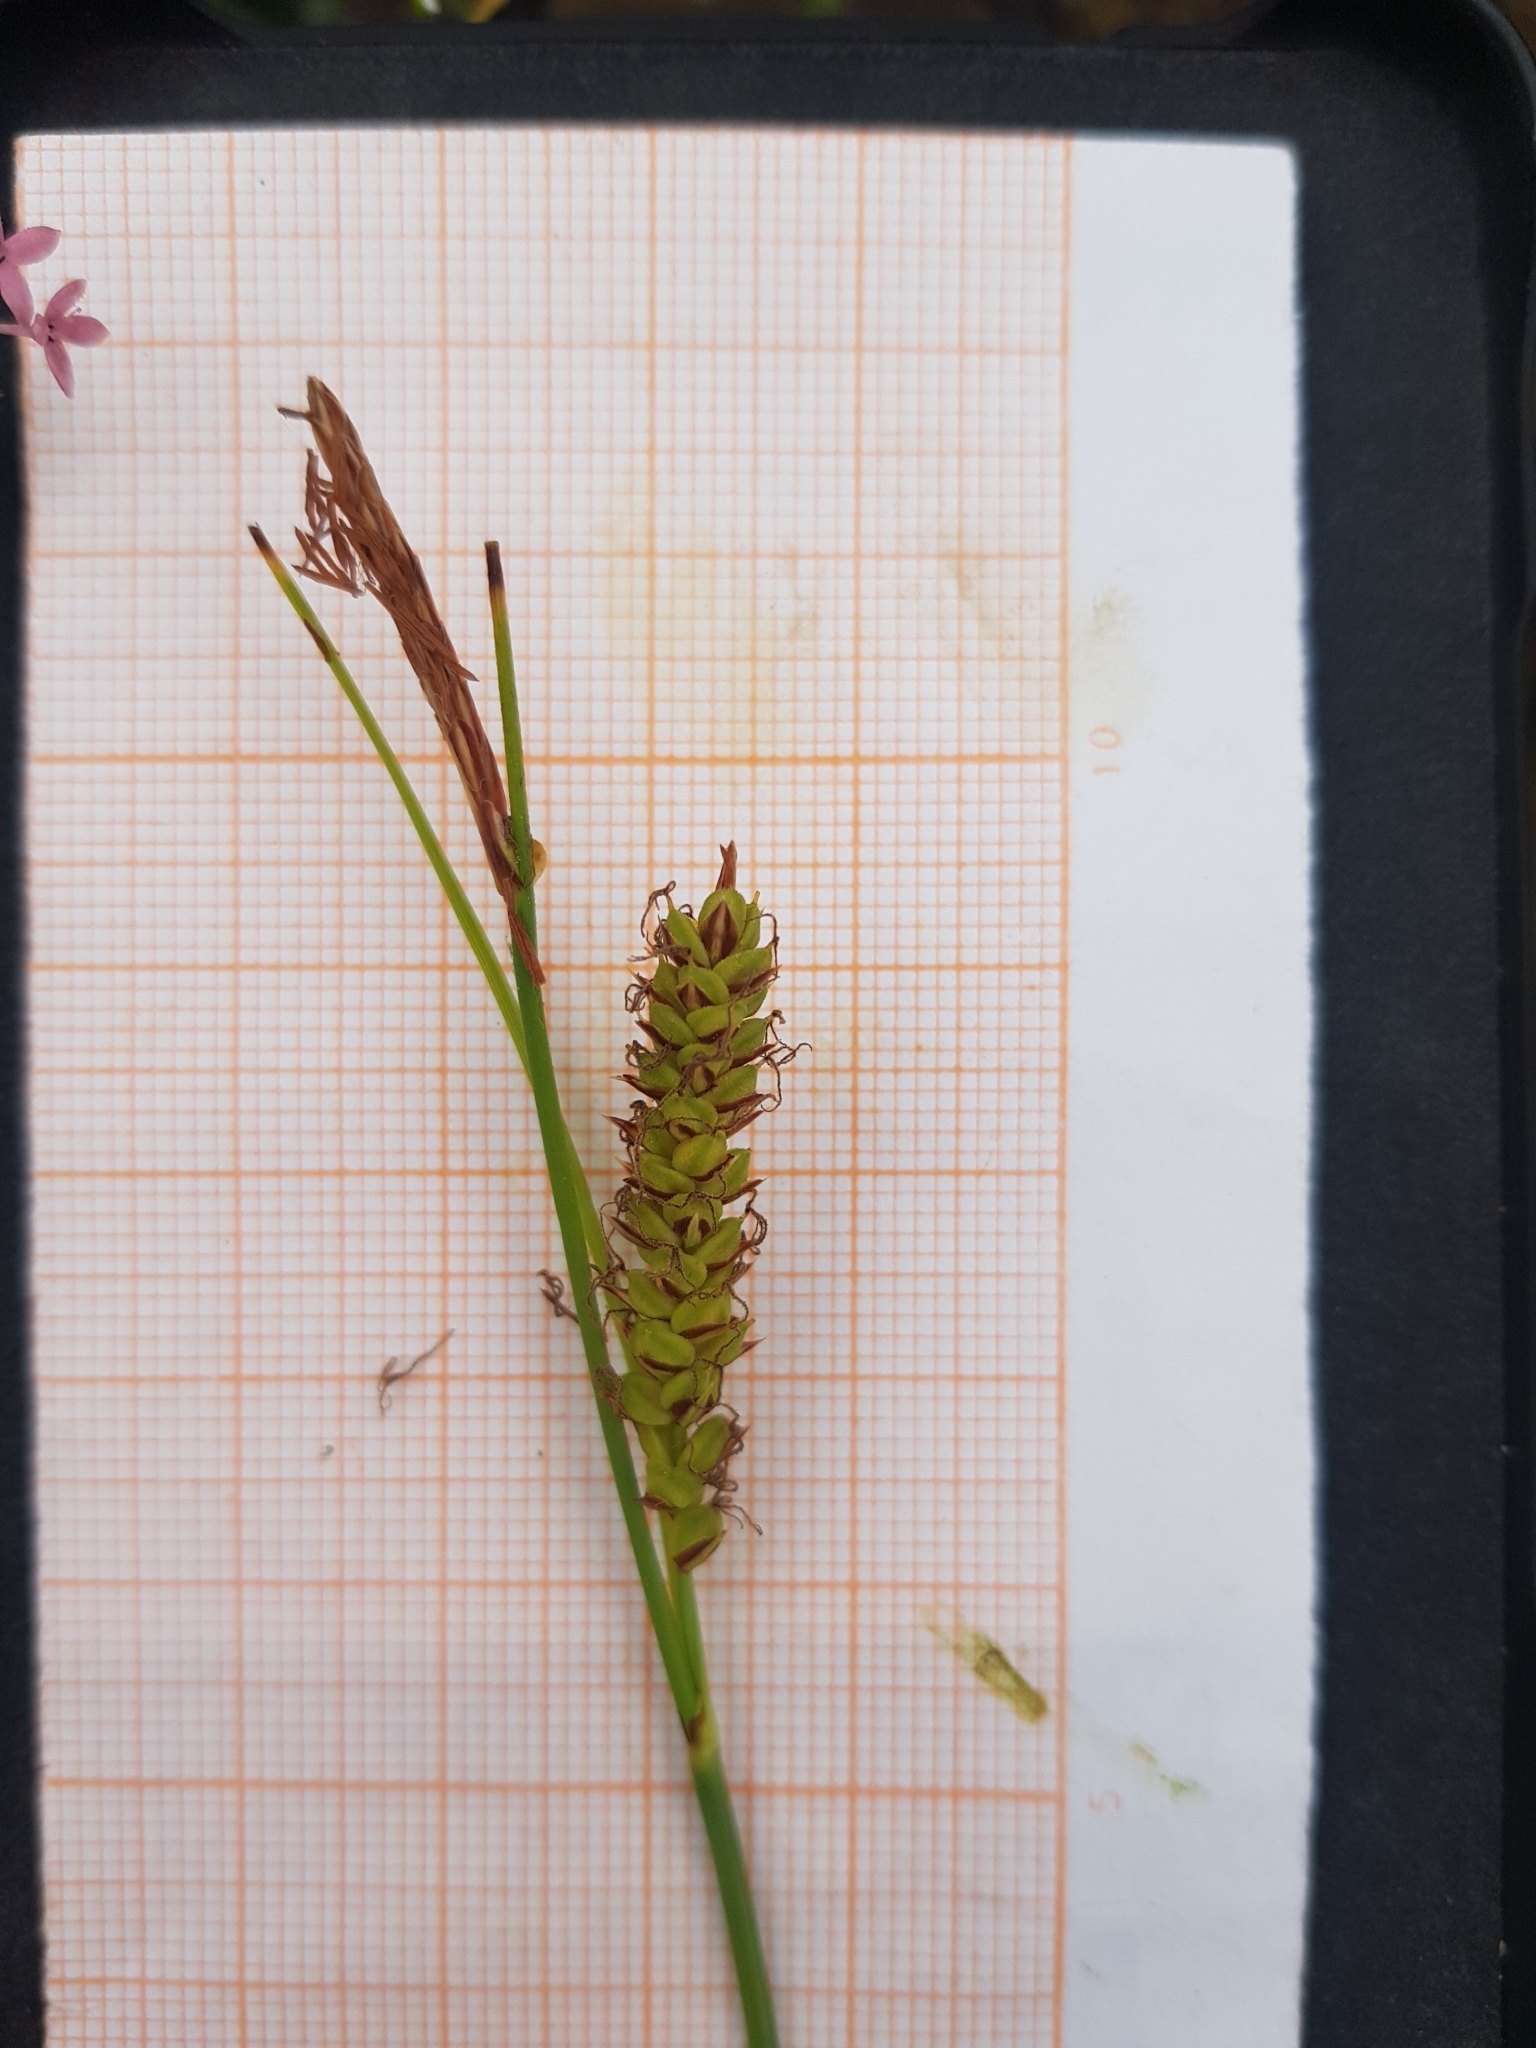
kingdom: Plantae
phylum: Tracheophyta
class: Liliopsida
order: Poales
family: Cyperaceae
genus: Carex
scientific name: Carex flacca
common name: Glaucous sedge
